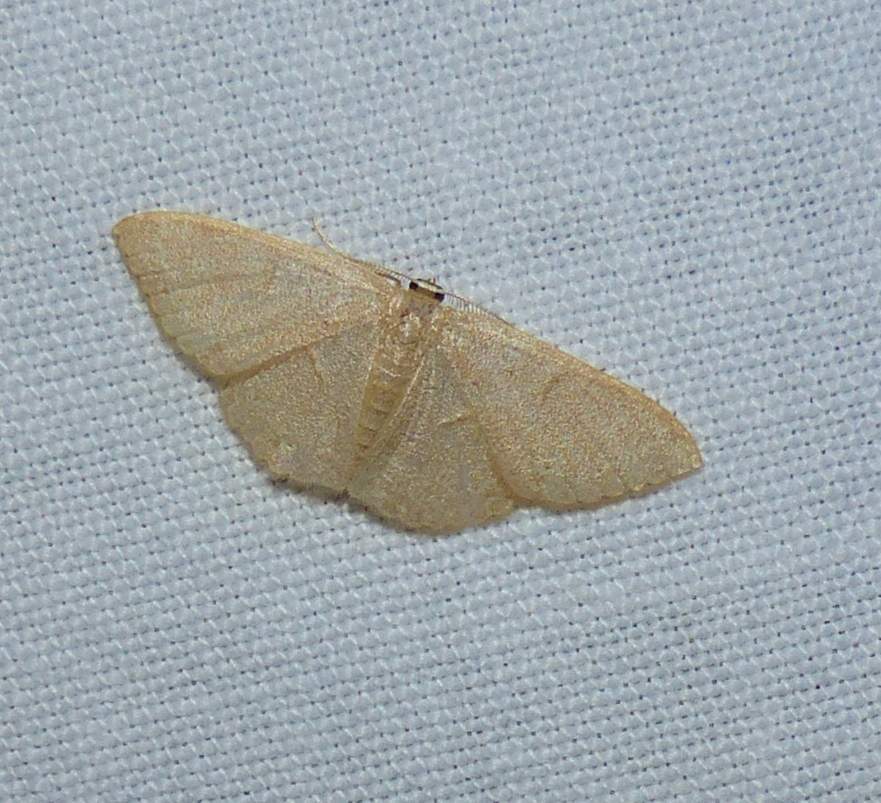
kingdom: Animalia
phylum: Arthropoda
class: Insecta
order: Lepidoptera
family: Geometridae
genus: Pleuroprucha
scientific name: Pleuroprucha insulsaria
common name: Common tan wave
